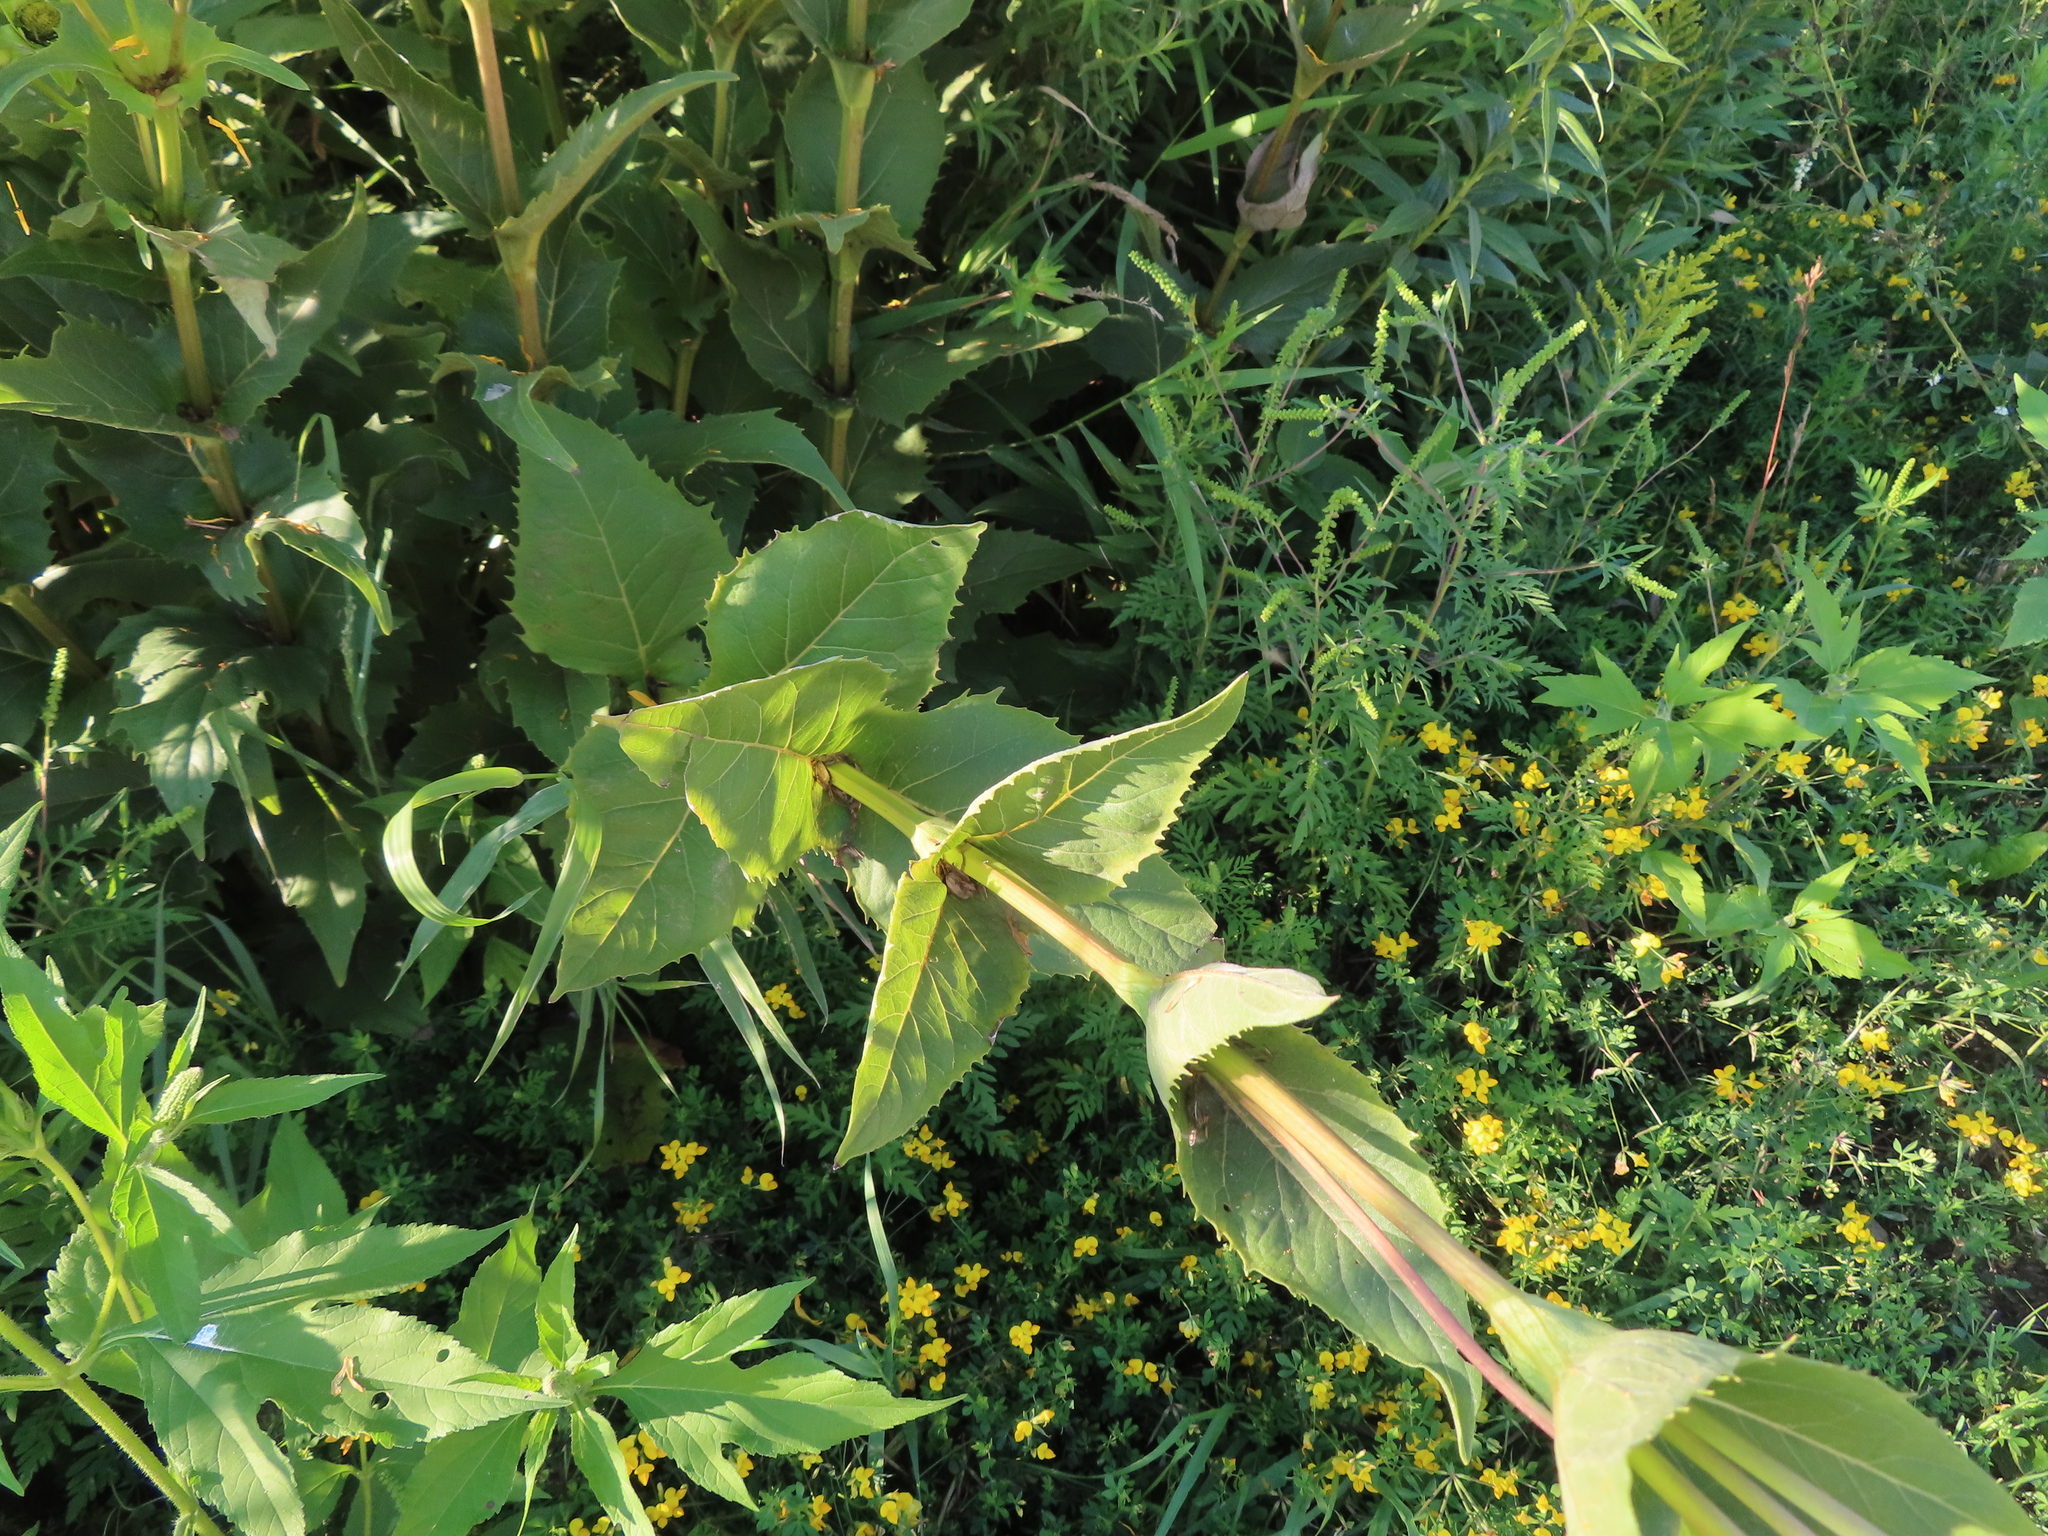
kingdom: Plantae
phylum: Tracheophyta
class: Magnoliopsida
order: Asterales
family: Asteraceae
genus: Silphium
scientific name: Silphium perfoliatum
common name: Cup-plant
